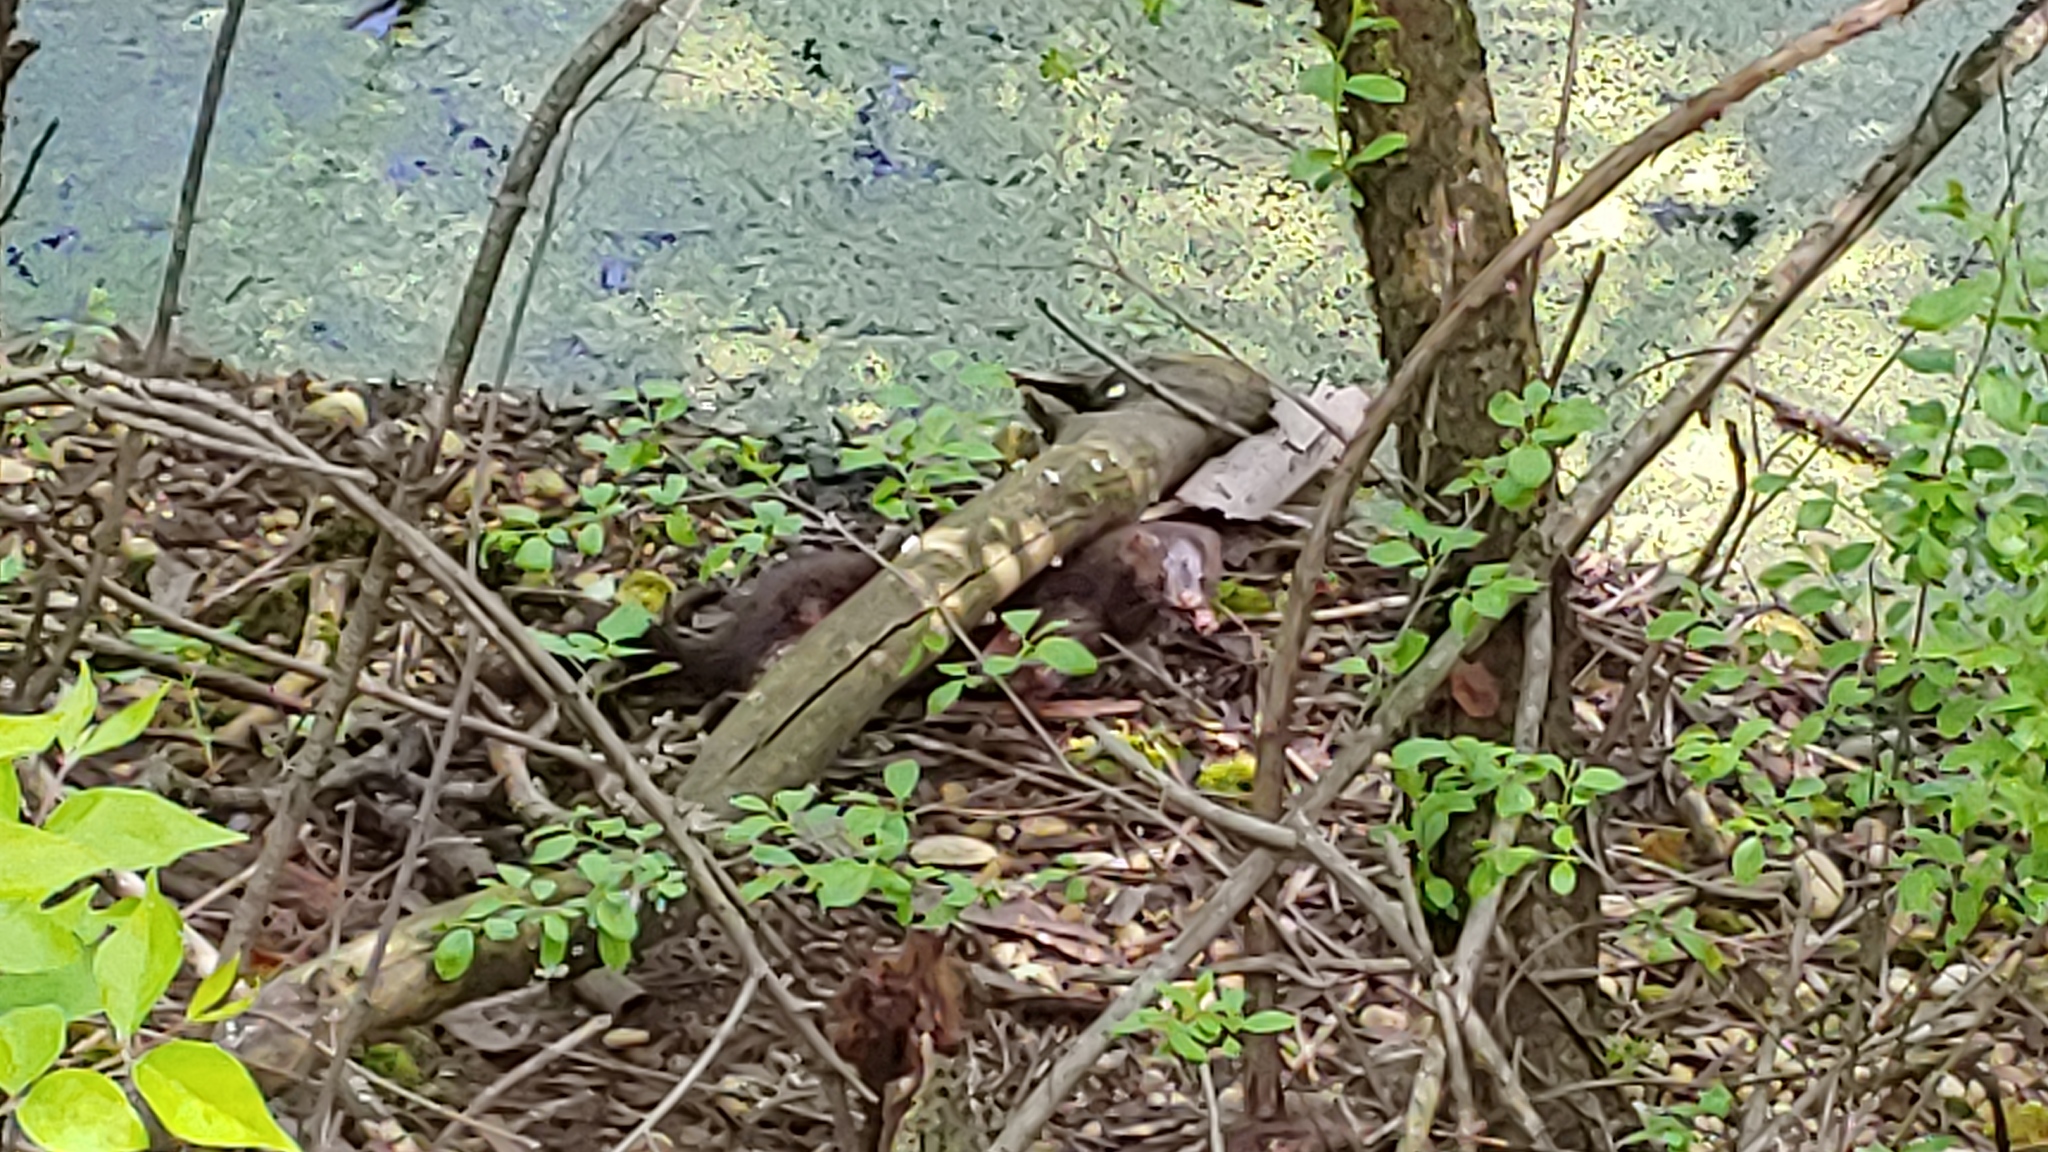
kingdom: Animalia
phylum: Chordata
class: Mammalia
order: Carnivora
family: Mustelidae
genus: Mustela
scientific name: Mustela
